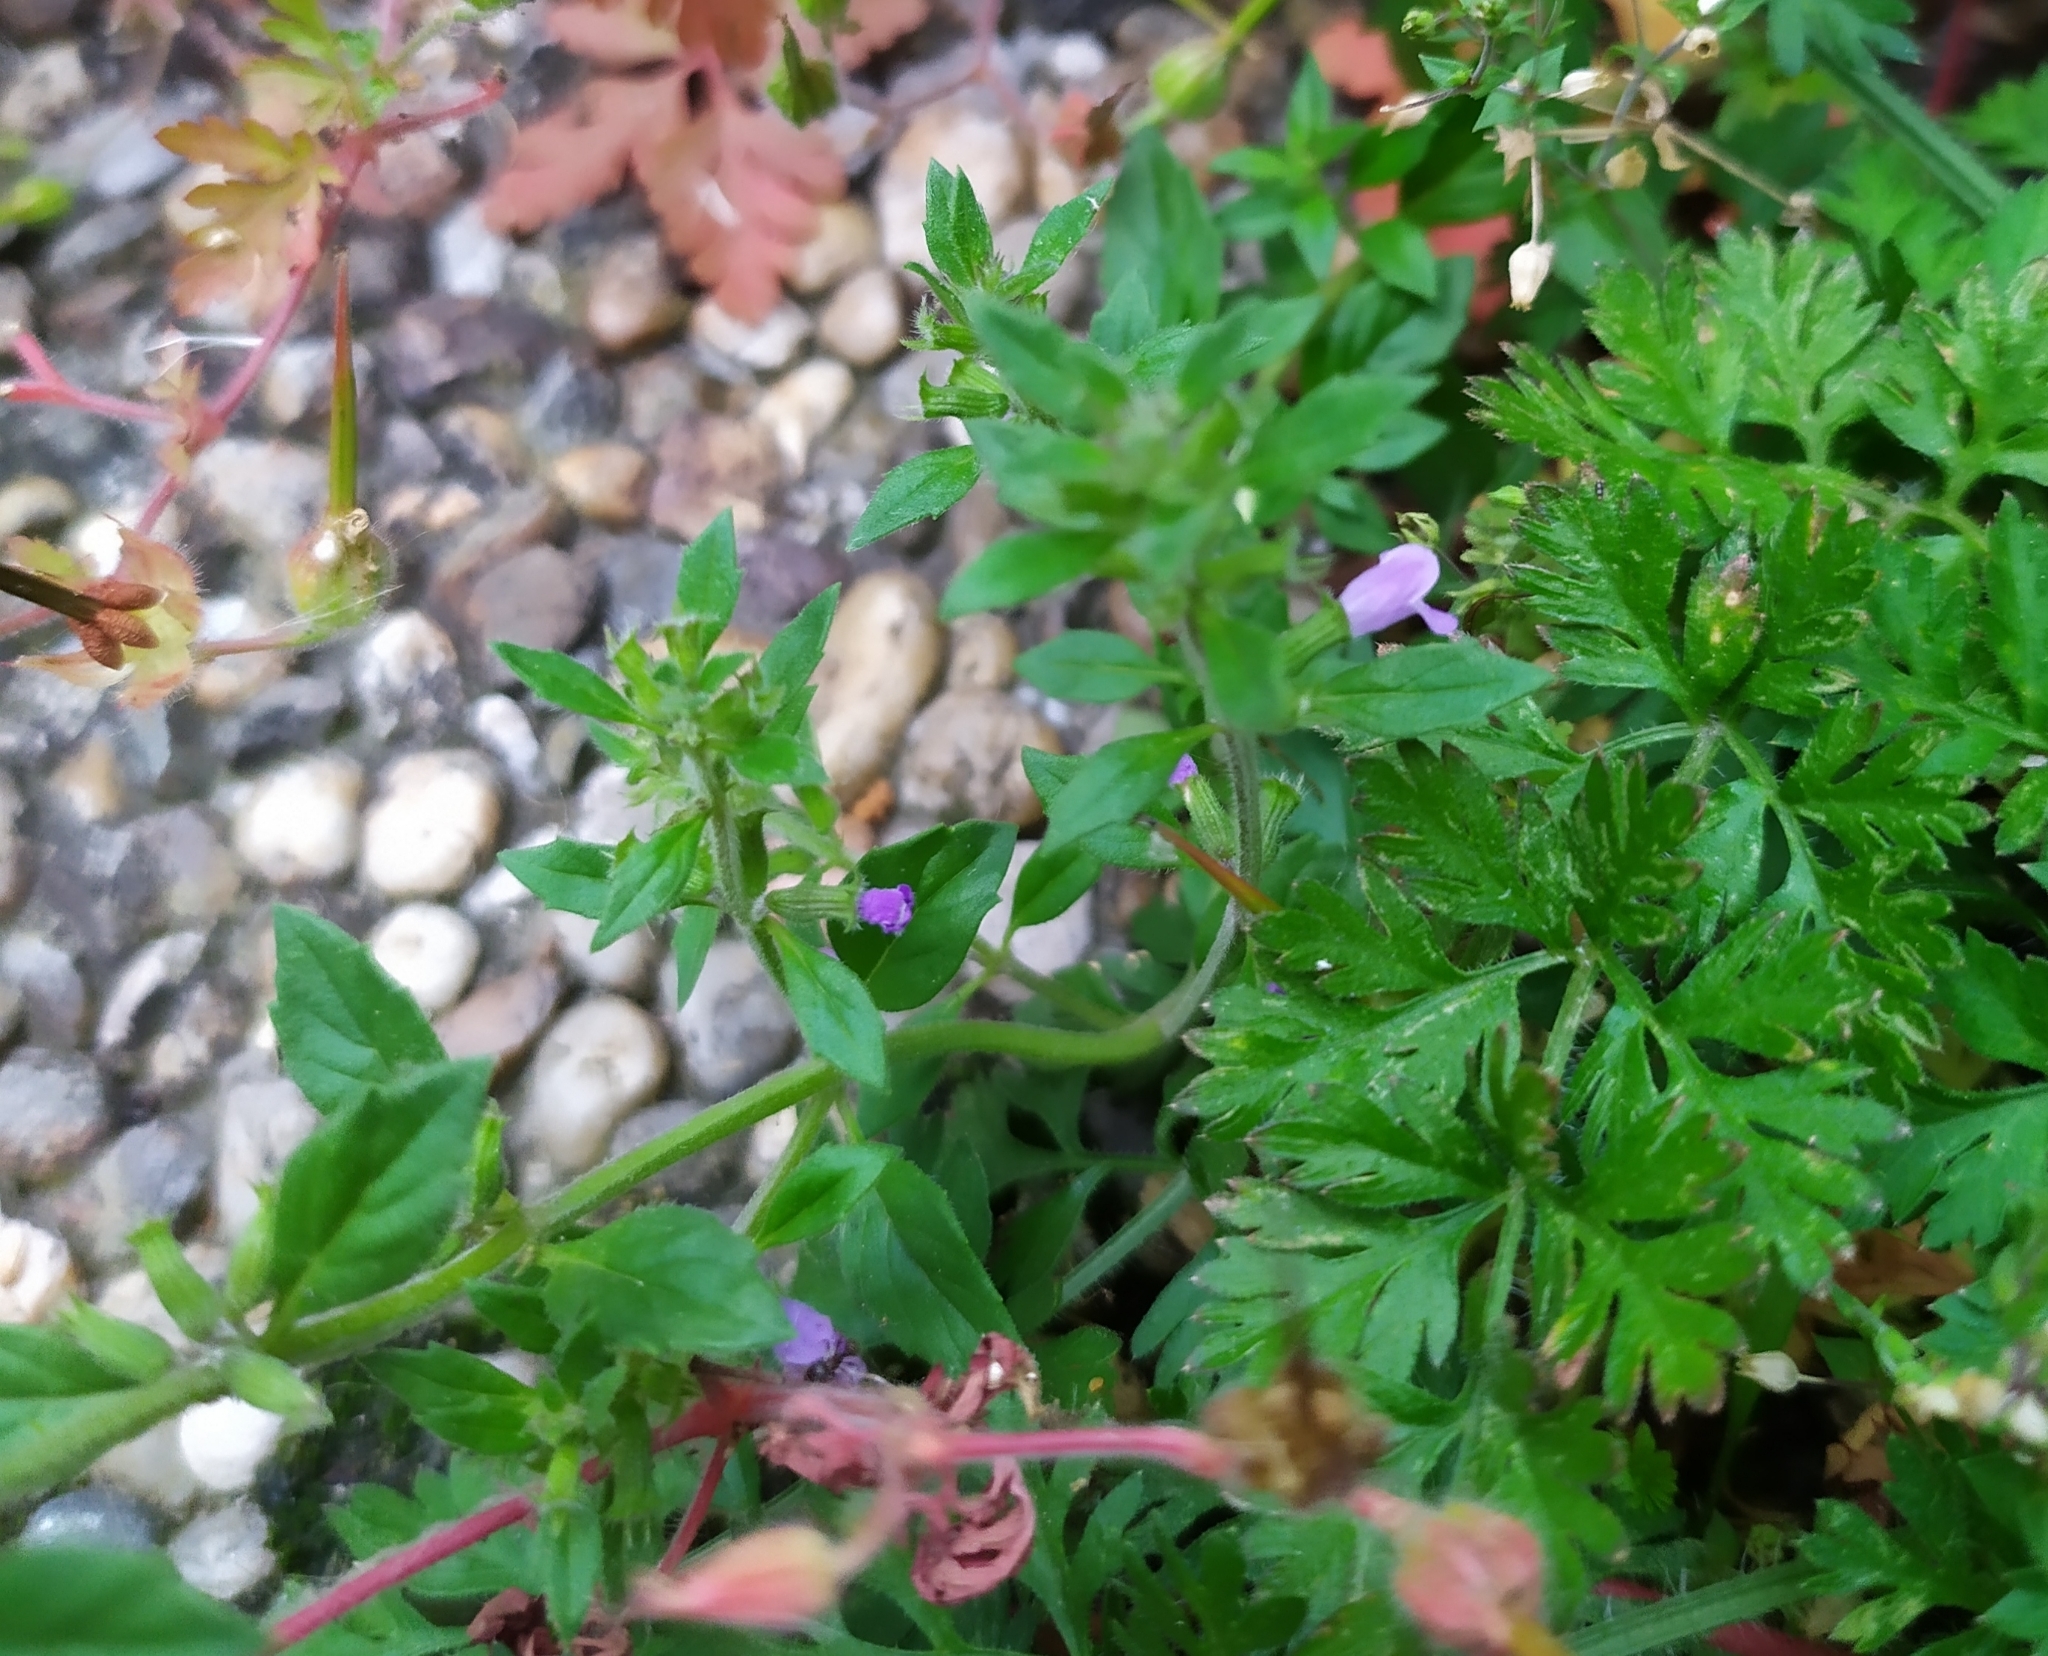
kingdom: Plantae
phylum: Tracheophyta
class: Magnoliopsida
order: Lamiales
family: Lamiaceae
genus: Clinopodium
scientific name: Clinopodium acinos
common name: Basil thyme
